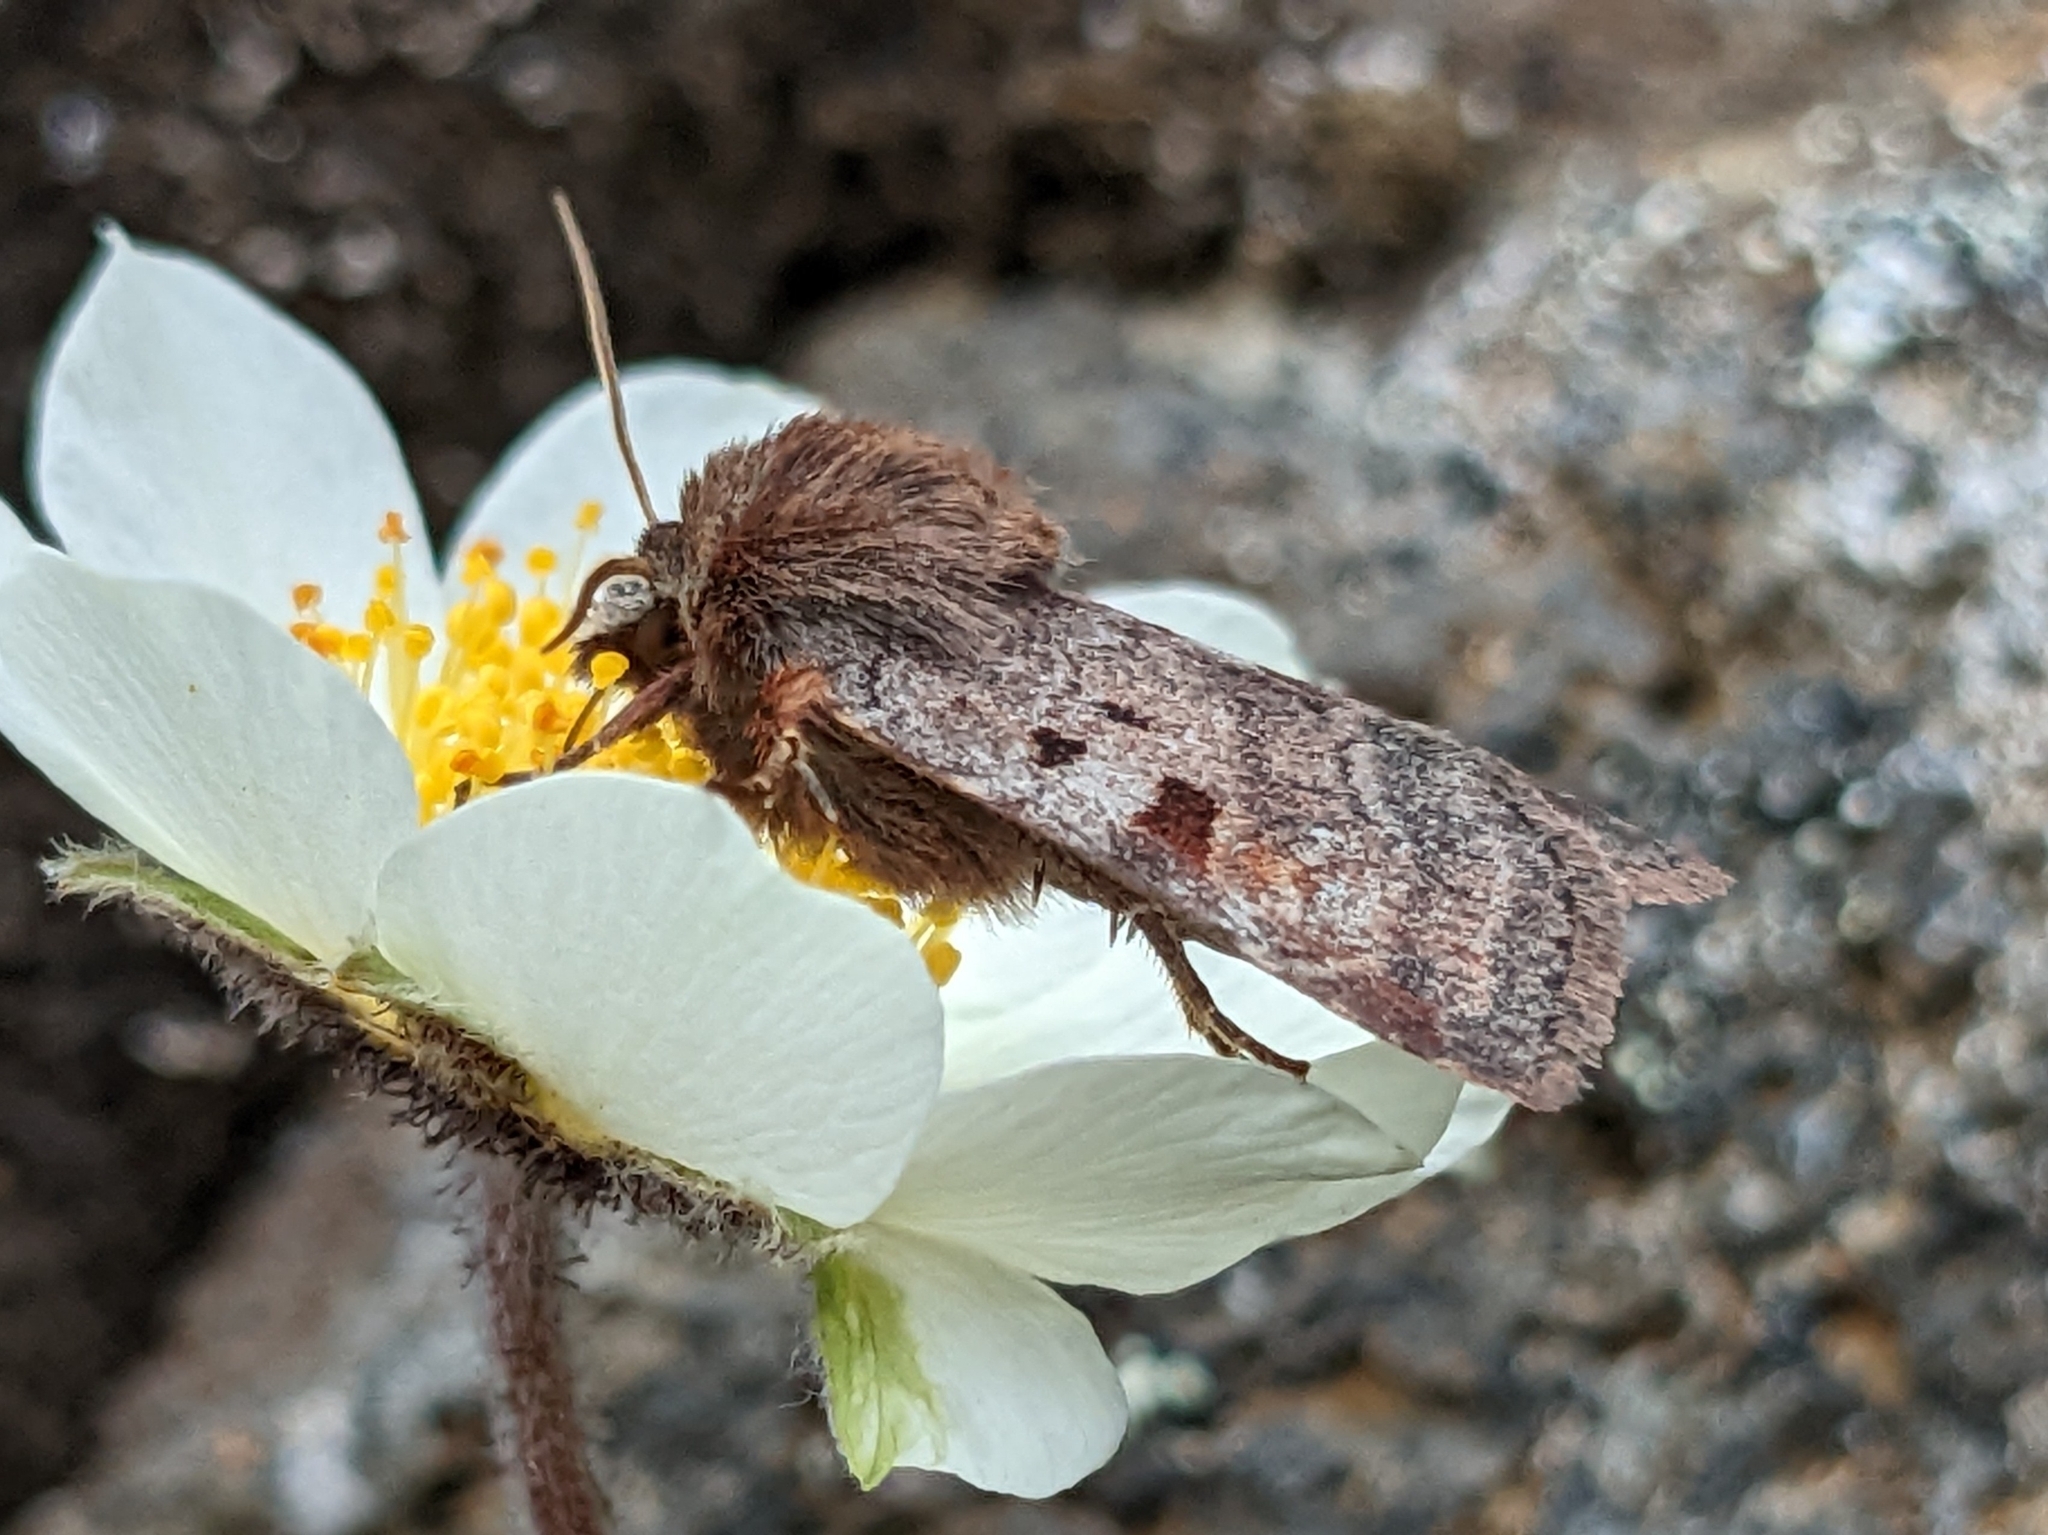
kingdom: Animalia
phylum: Arthropoda
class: Insecta
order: Lepidoptera
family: Noctuidae
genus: Diarsia
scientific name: Diarsia mendica
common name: Ingrailed clay
